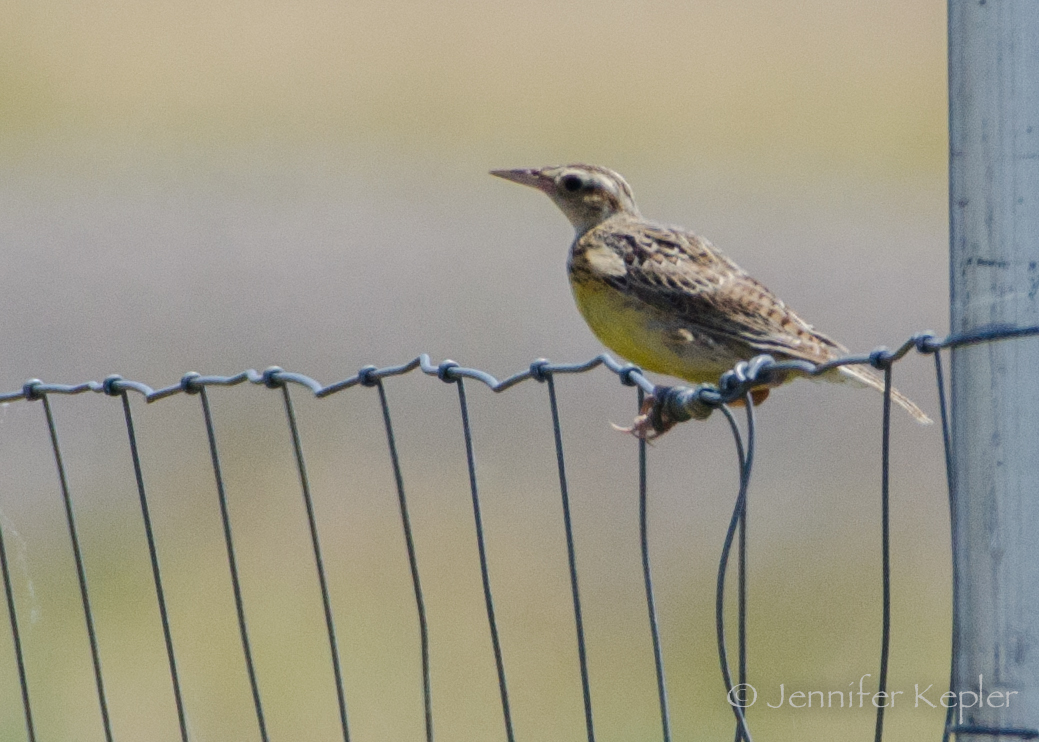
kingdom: Animalia
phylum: Chordata
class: Aves
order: Passeriformes
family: Icteridae
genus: Sturnella
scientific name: Sturnella neglecta
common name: Western meadowlark
